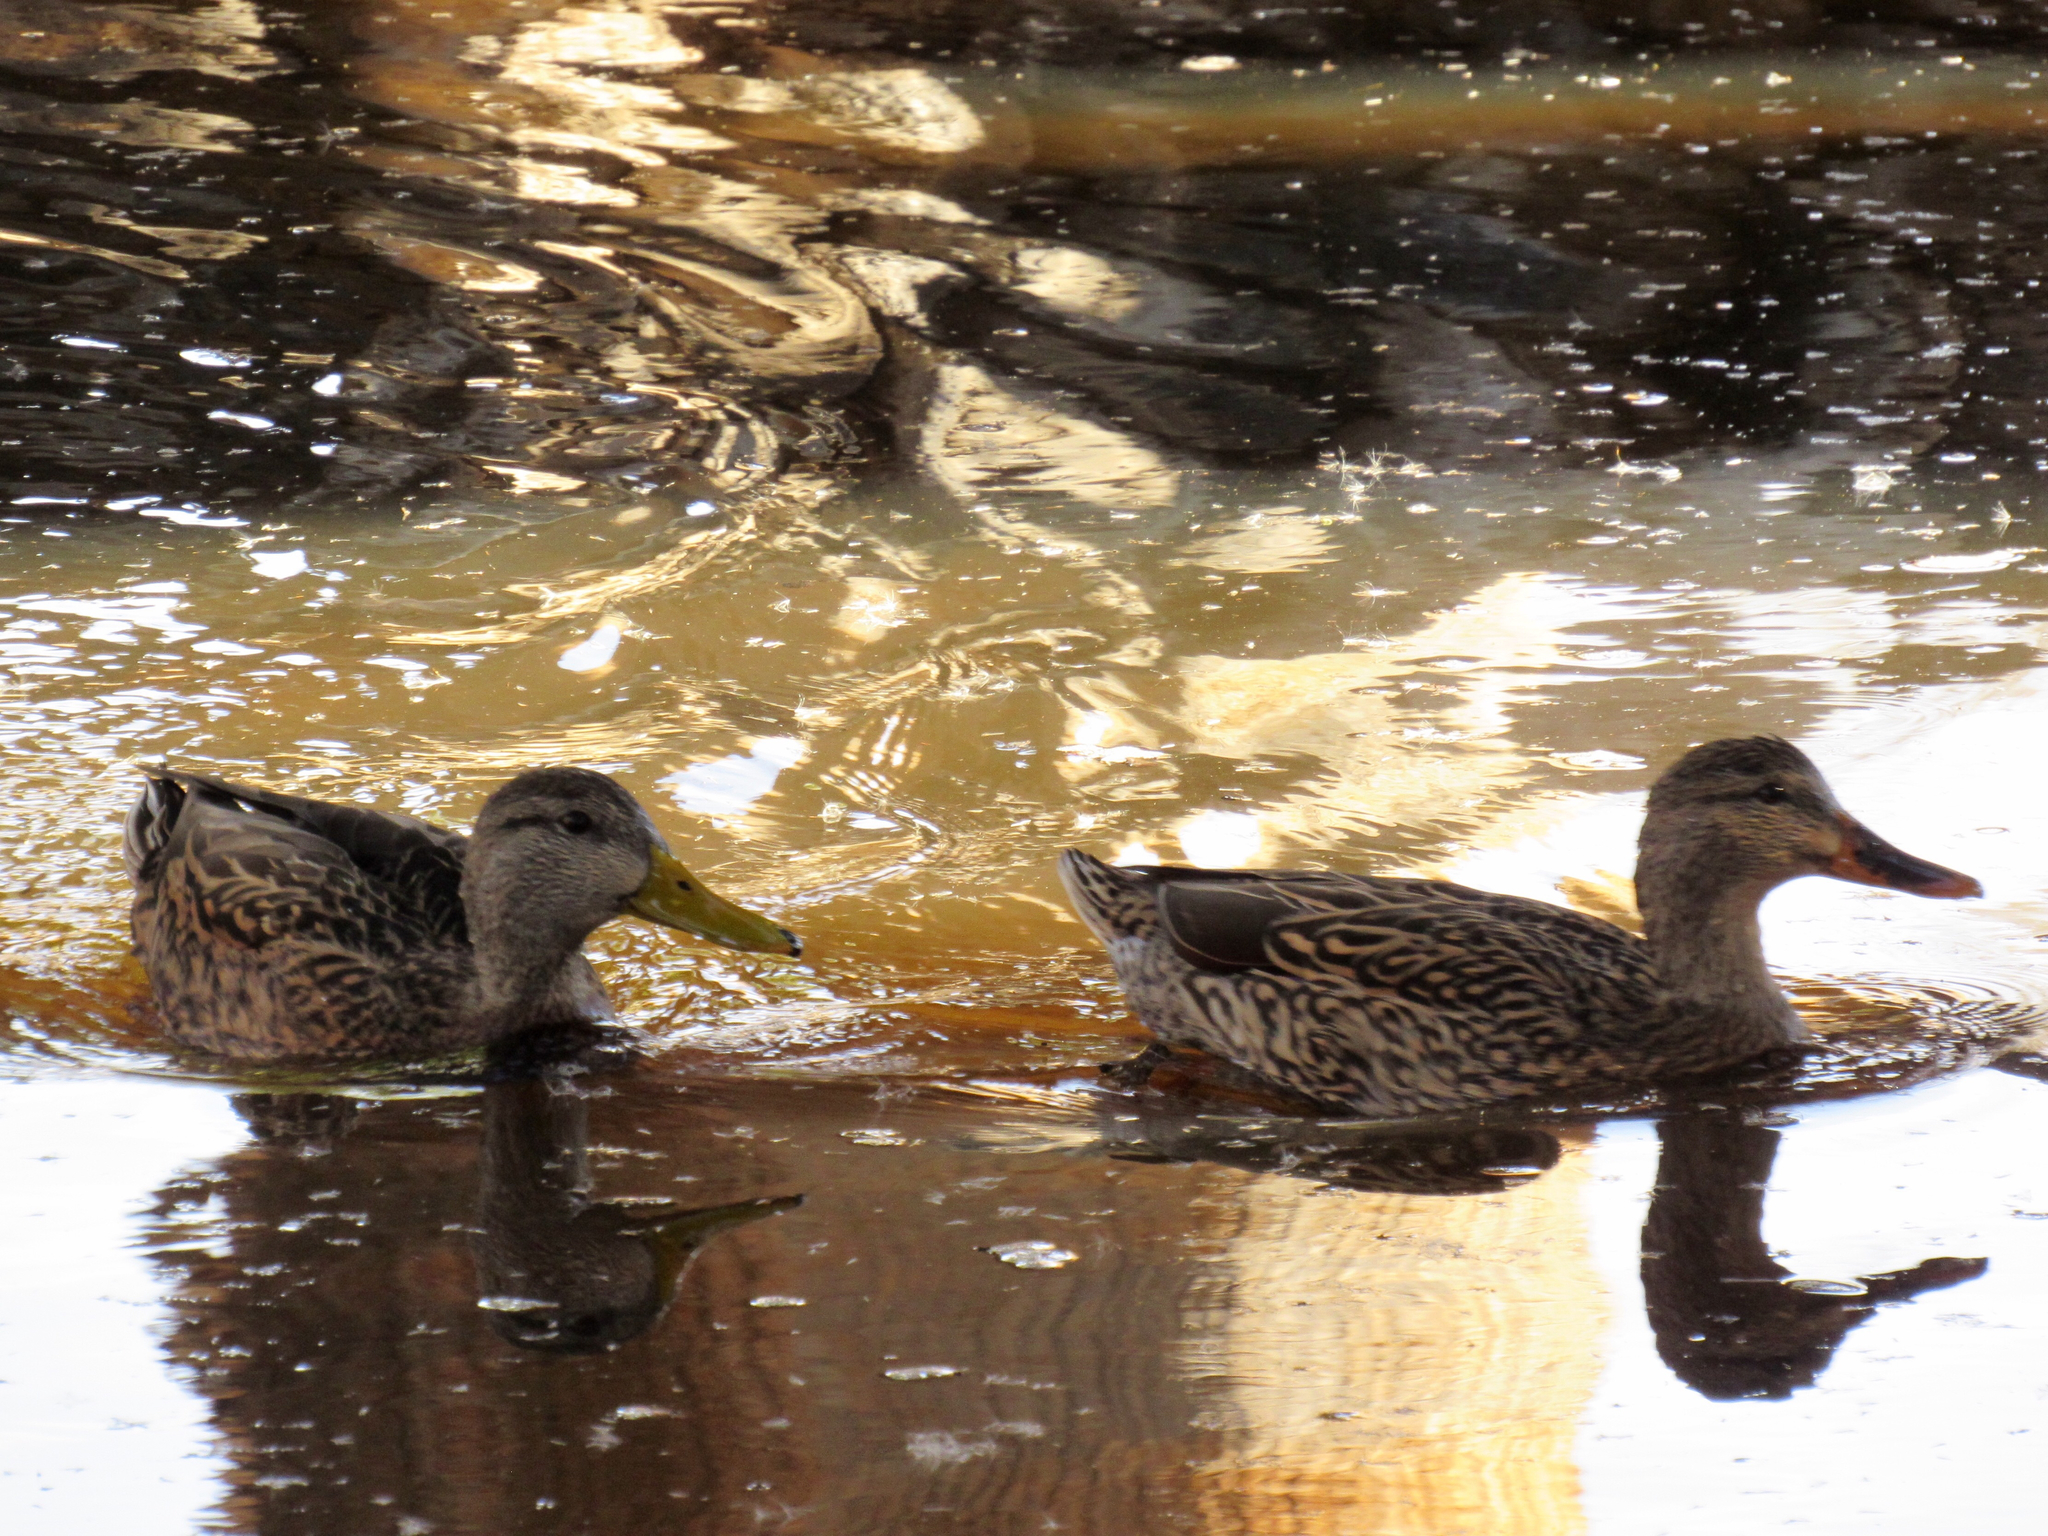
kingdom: Animalia
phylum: Chordata
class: Aves
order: Anseriformes
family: Anatidae
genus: Anas
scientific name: Anas
